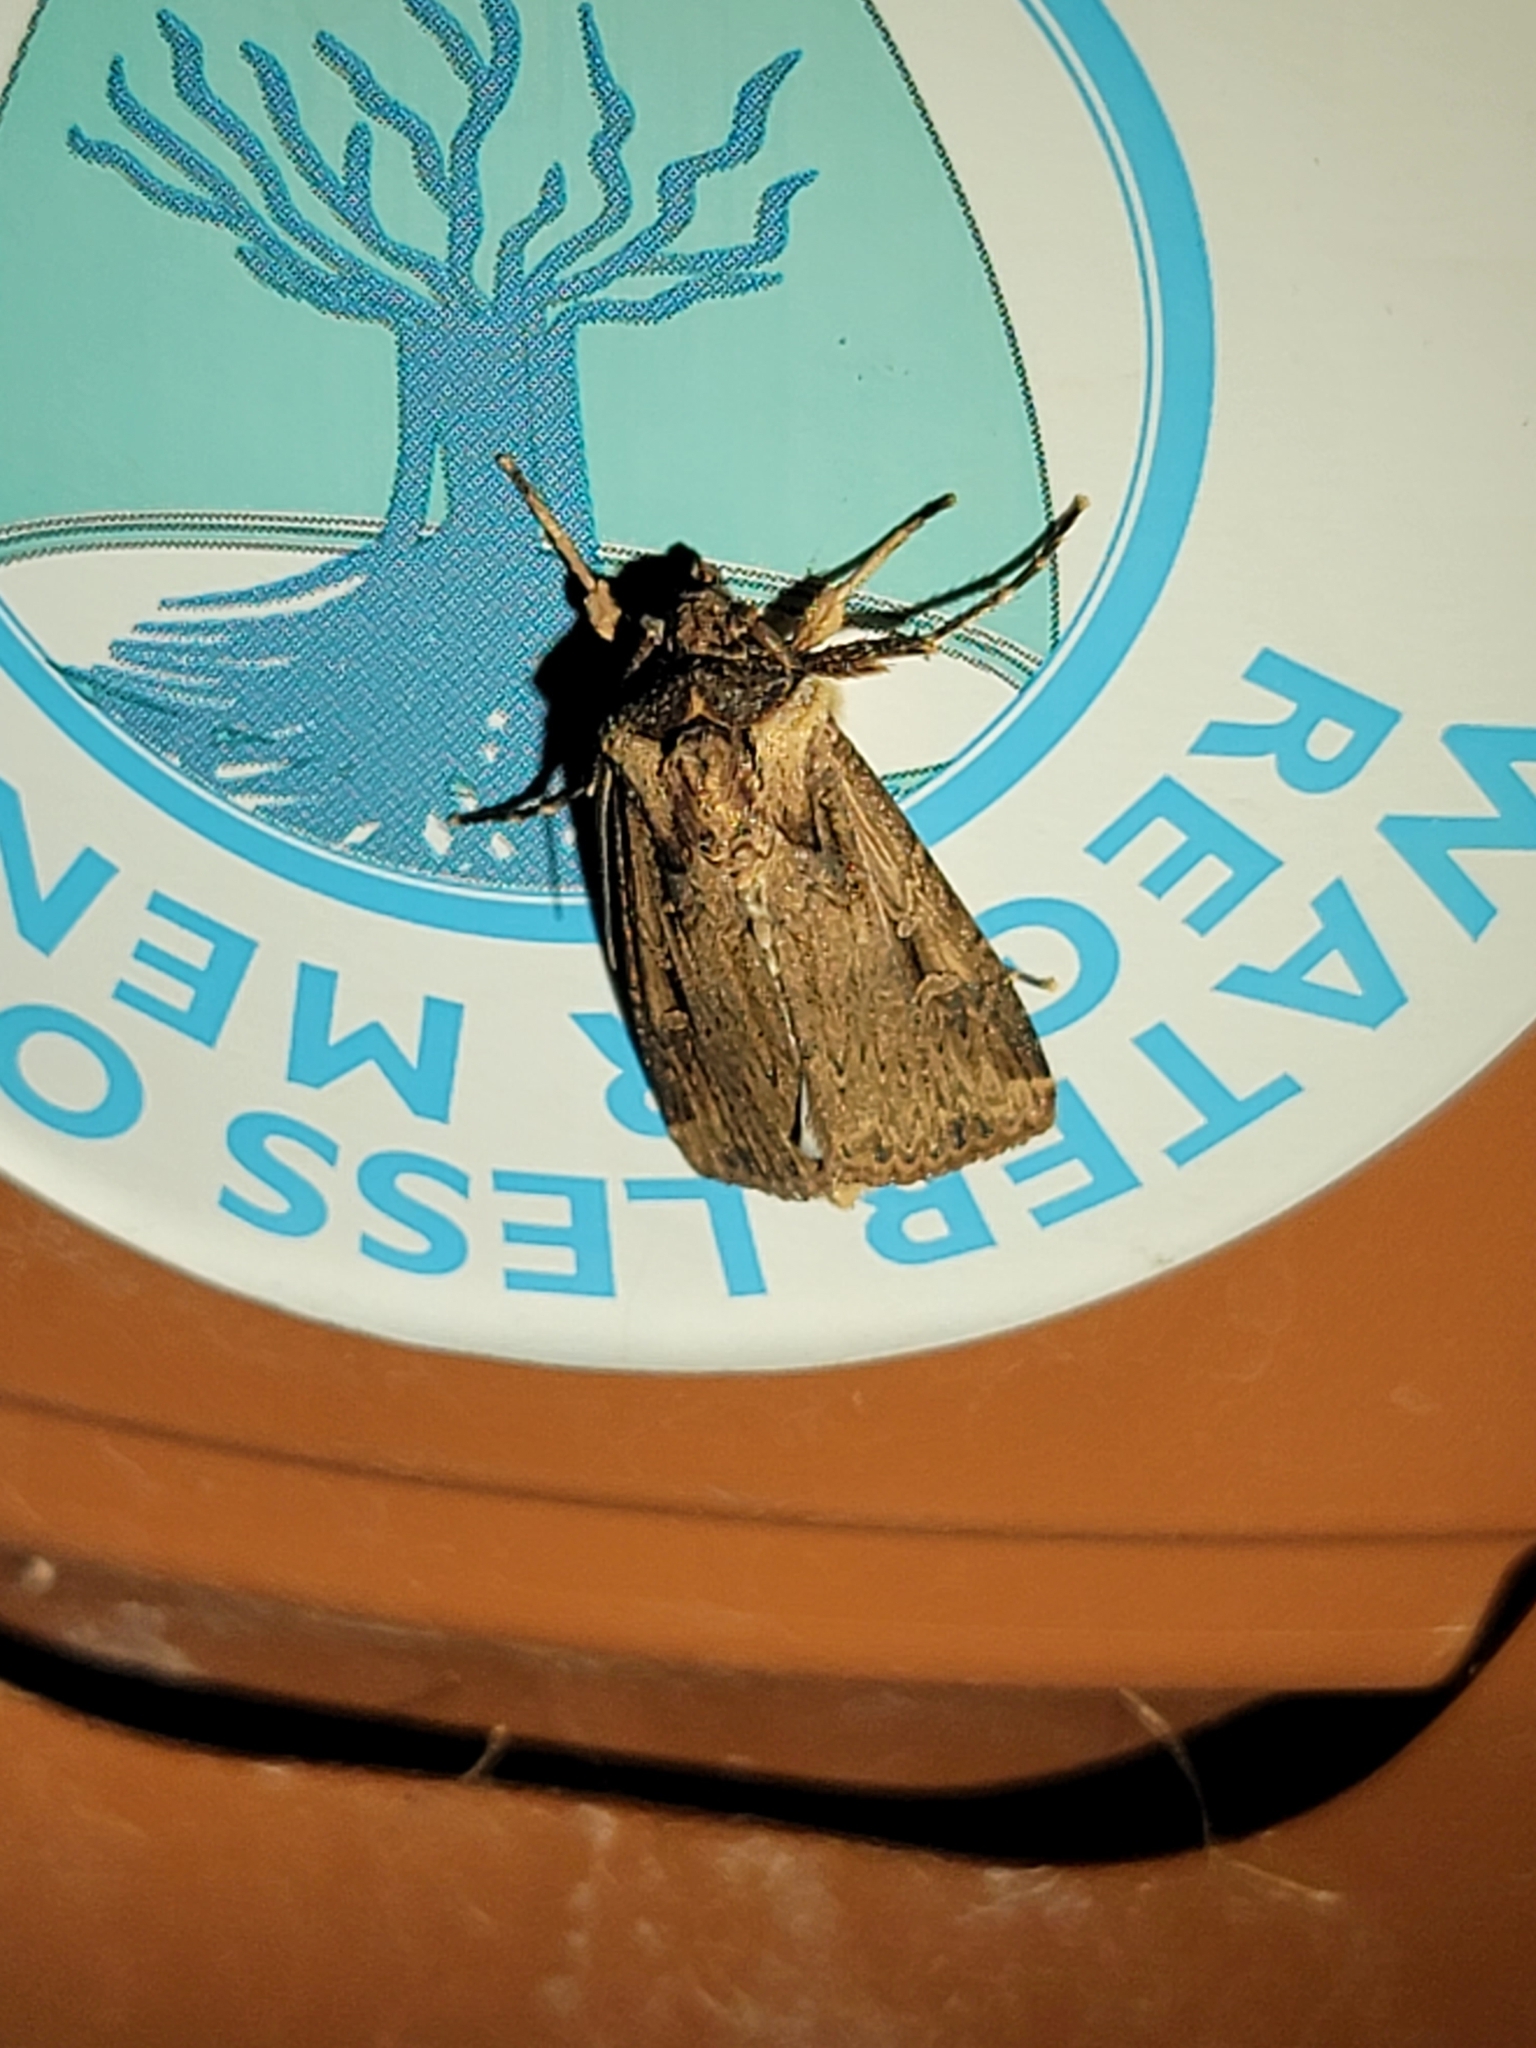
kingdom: Animalia
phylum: Arthropoda
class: Insecta
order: Lepidoptera
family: Noctuidae
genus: Feltia
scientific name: Feltia subterranea
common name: Granulate cutworm
